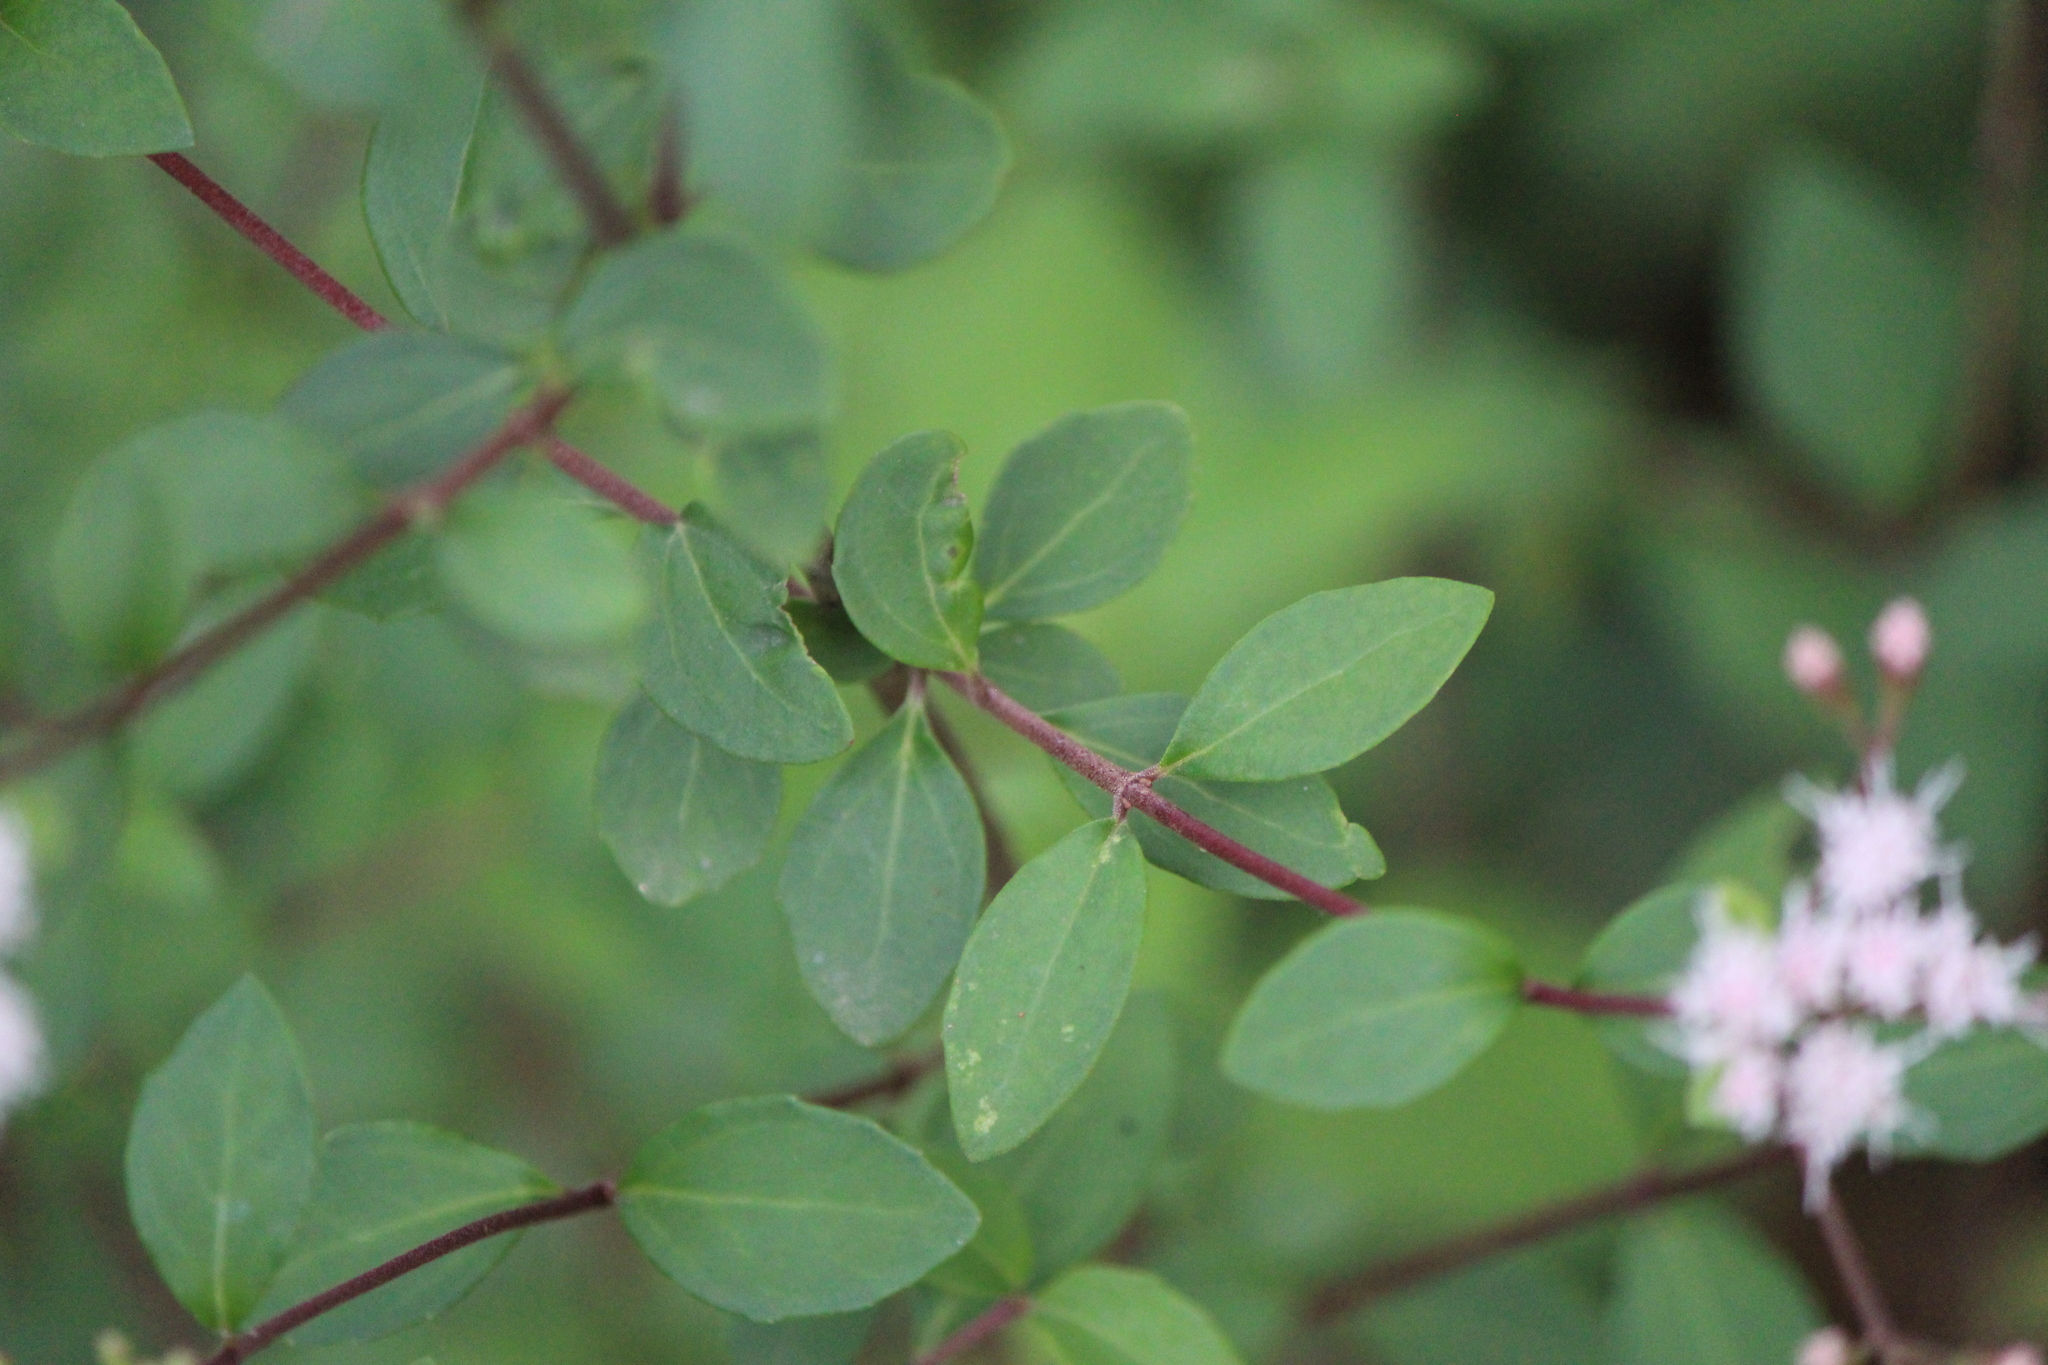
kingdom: Plantae
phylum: Tracheophyta
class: Magnoliopsida
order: Asterales
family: Asteraceae
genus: Ageratina
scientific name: Ageratina calaminthifolia
